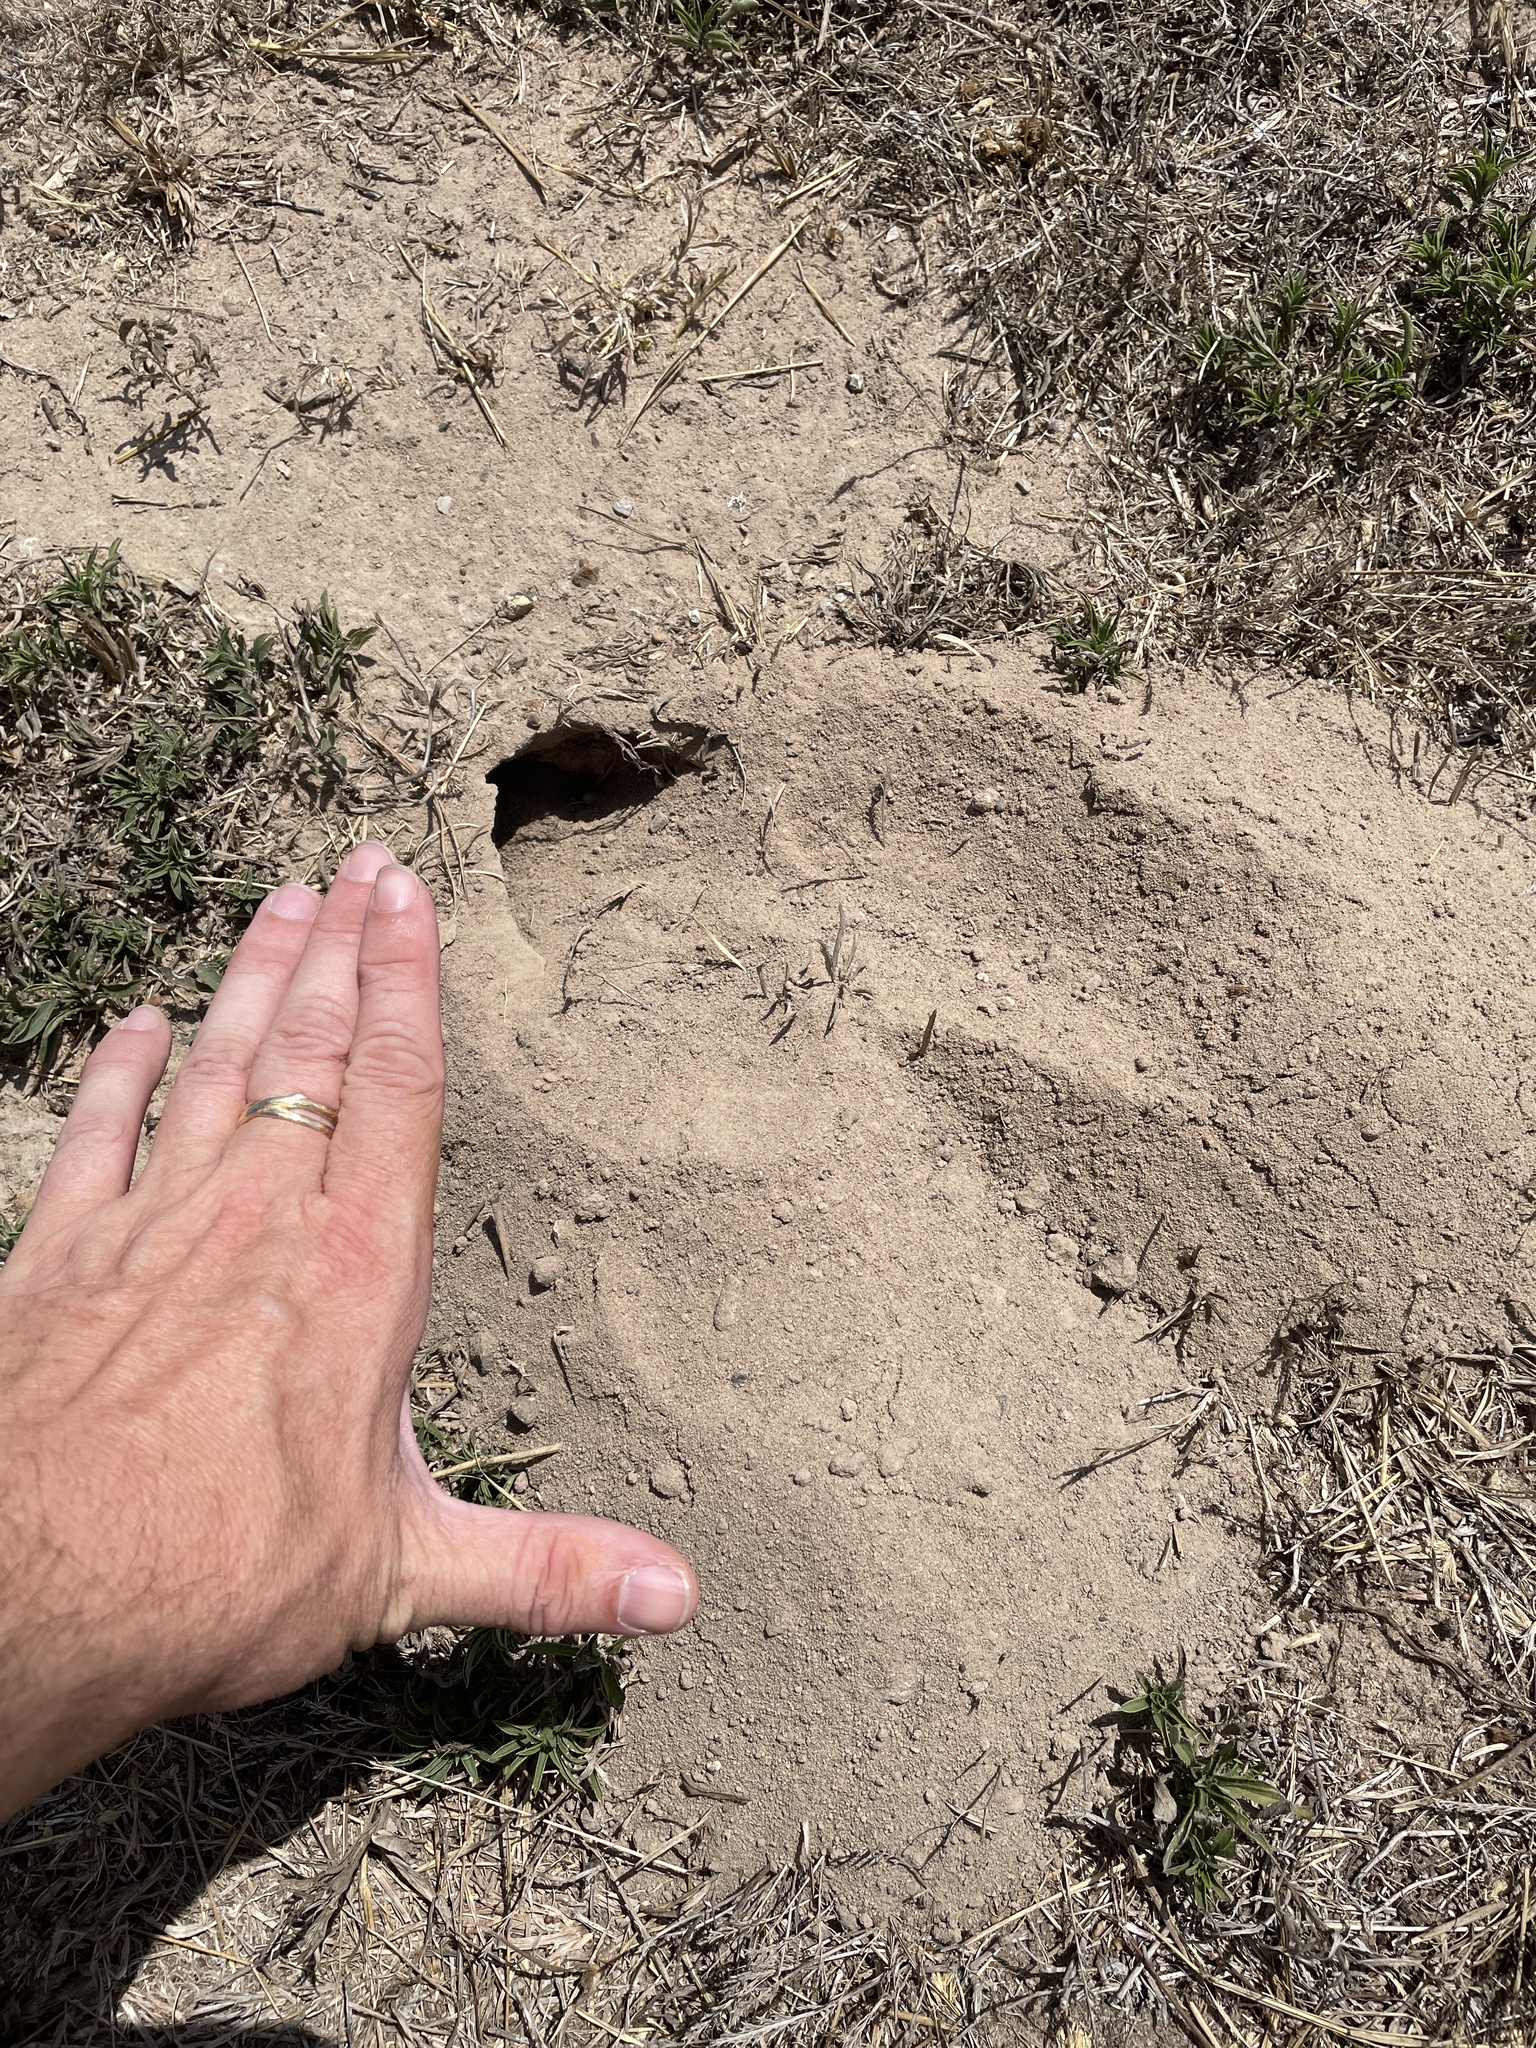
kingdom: Animalia
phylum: Chordata
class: Mammalia
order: Rodentia
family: Geomyidae
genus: Geomys
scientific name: Geomys attwateri
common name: Attwater's pocket gopher
